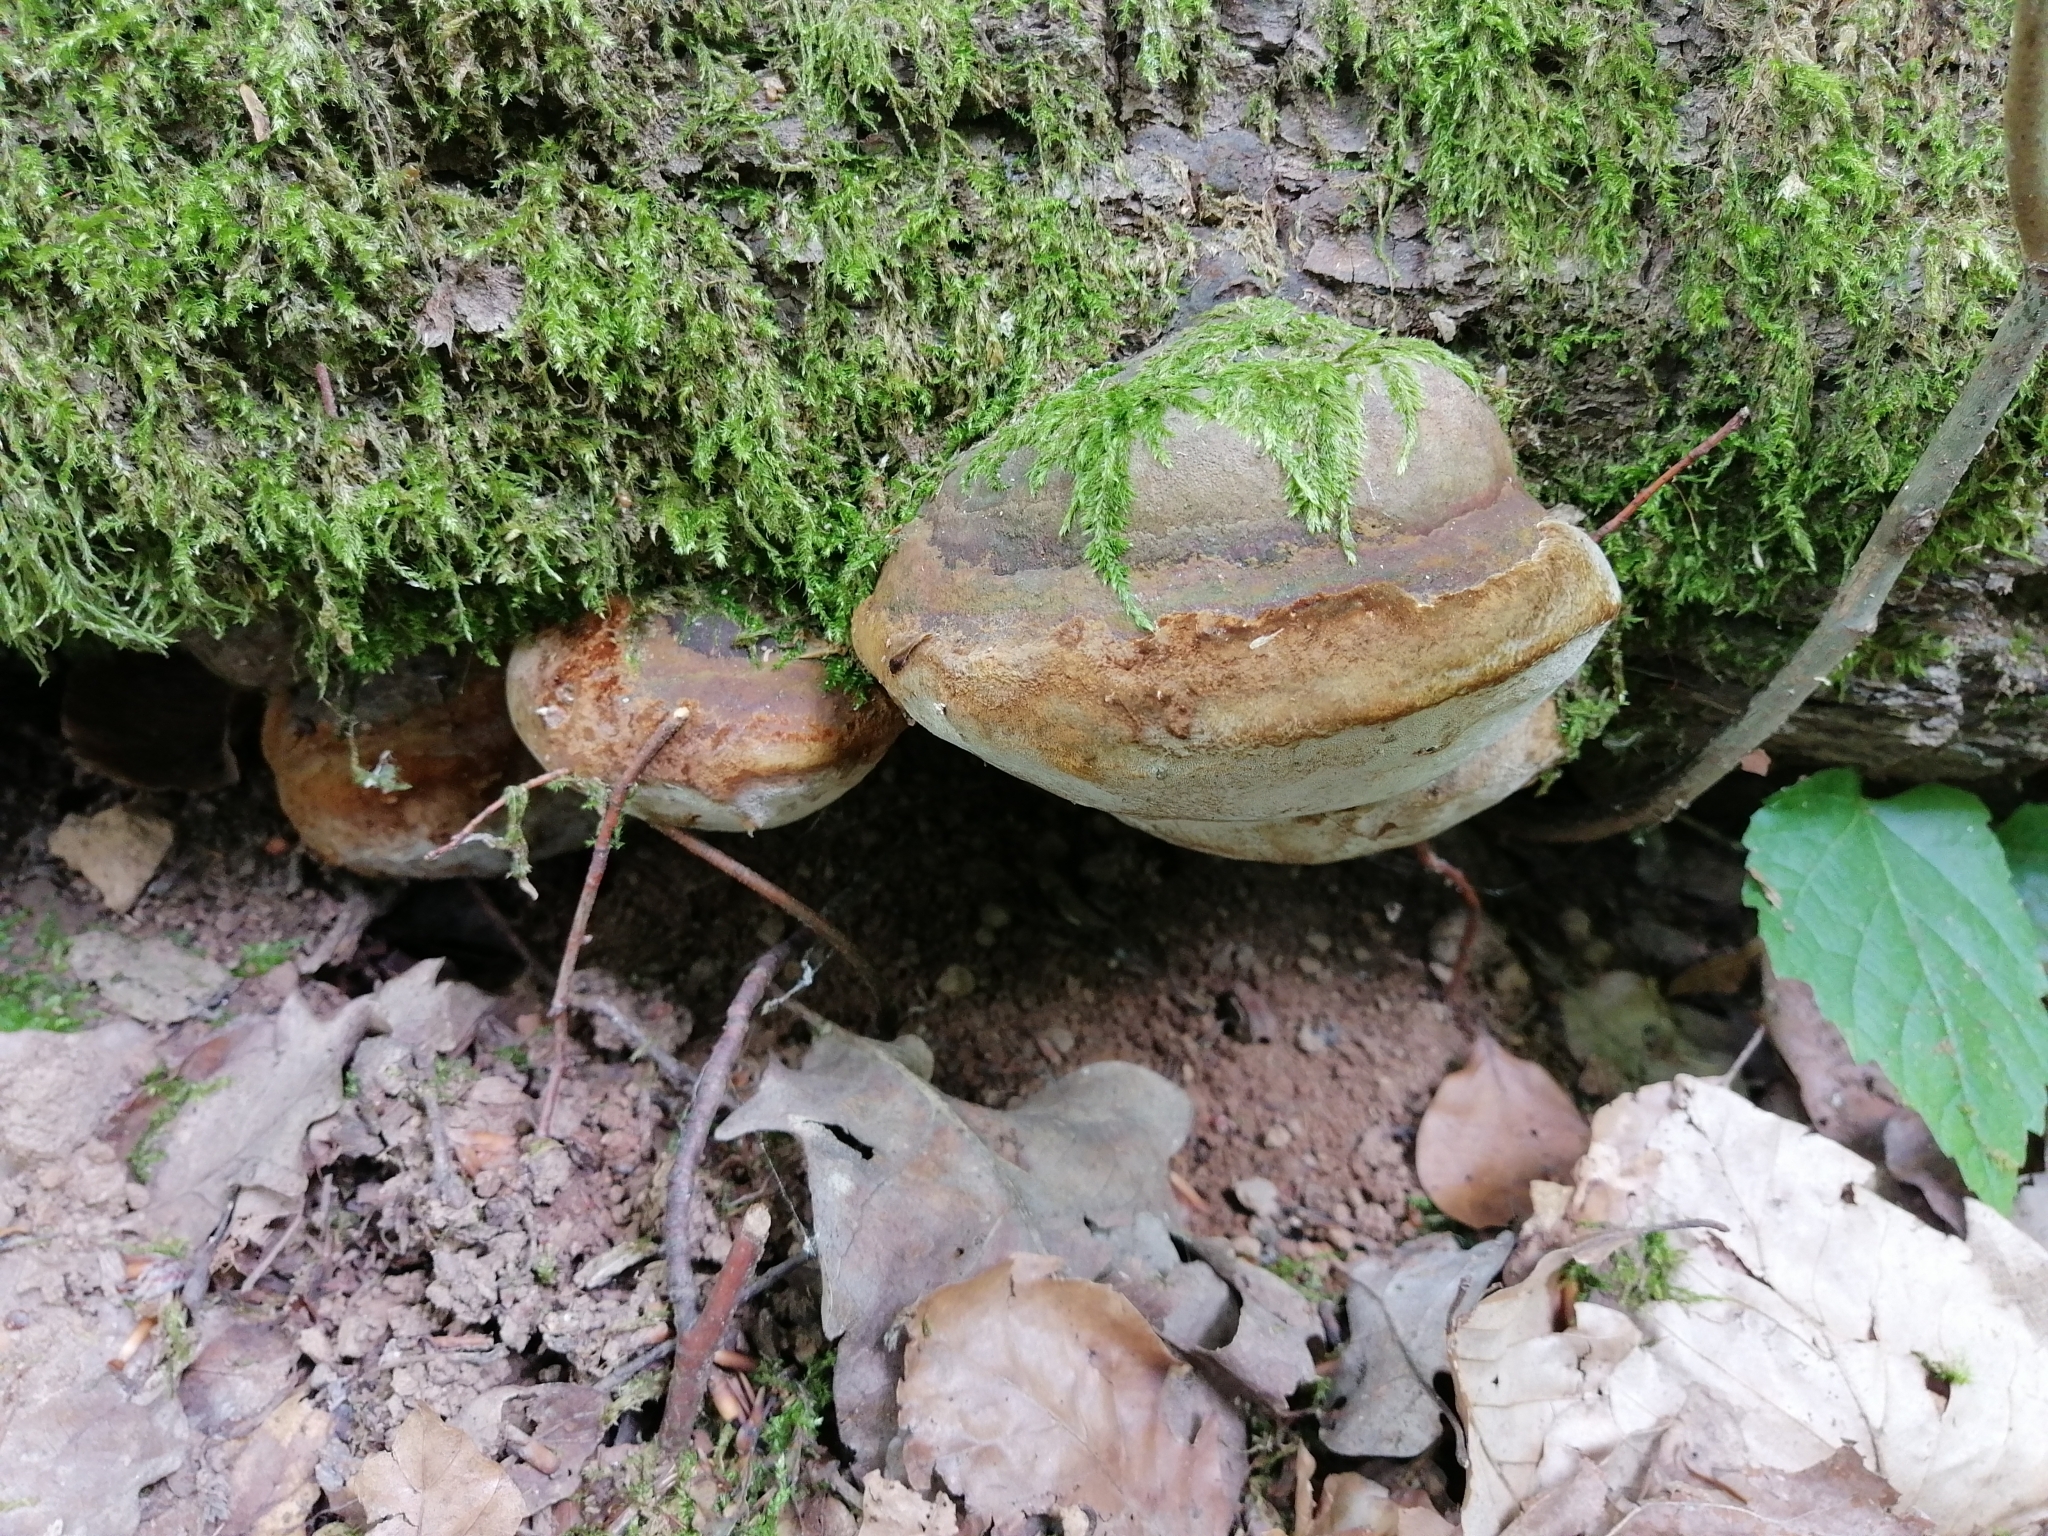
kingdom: Fungi
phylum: Basidiomycota
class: Agaricomycetes
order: Hymenochaetales
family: Hymenochaetaceae
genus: Fomitiporia
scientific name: Fomitiporia robusta
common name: Robust bracket
